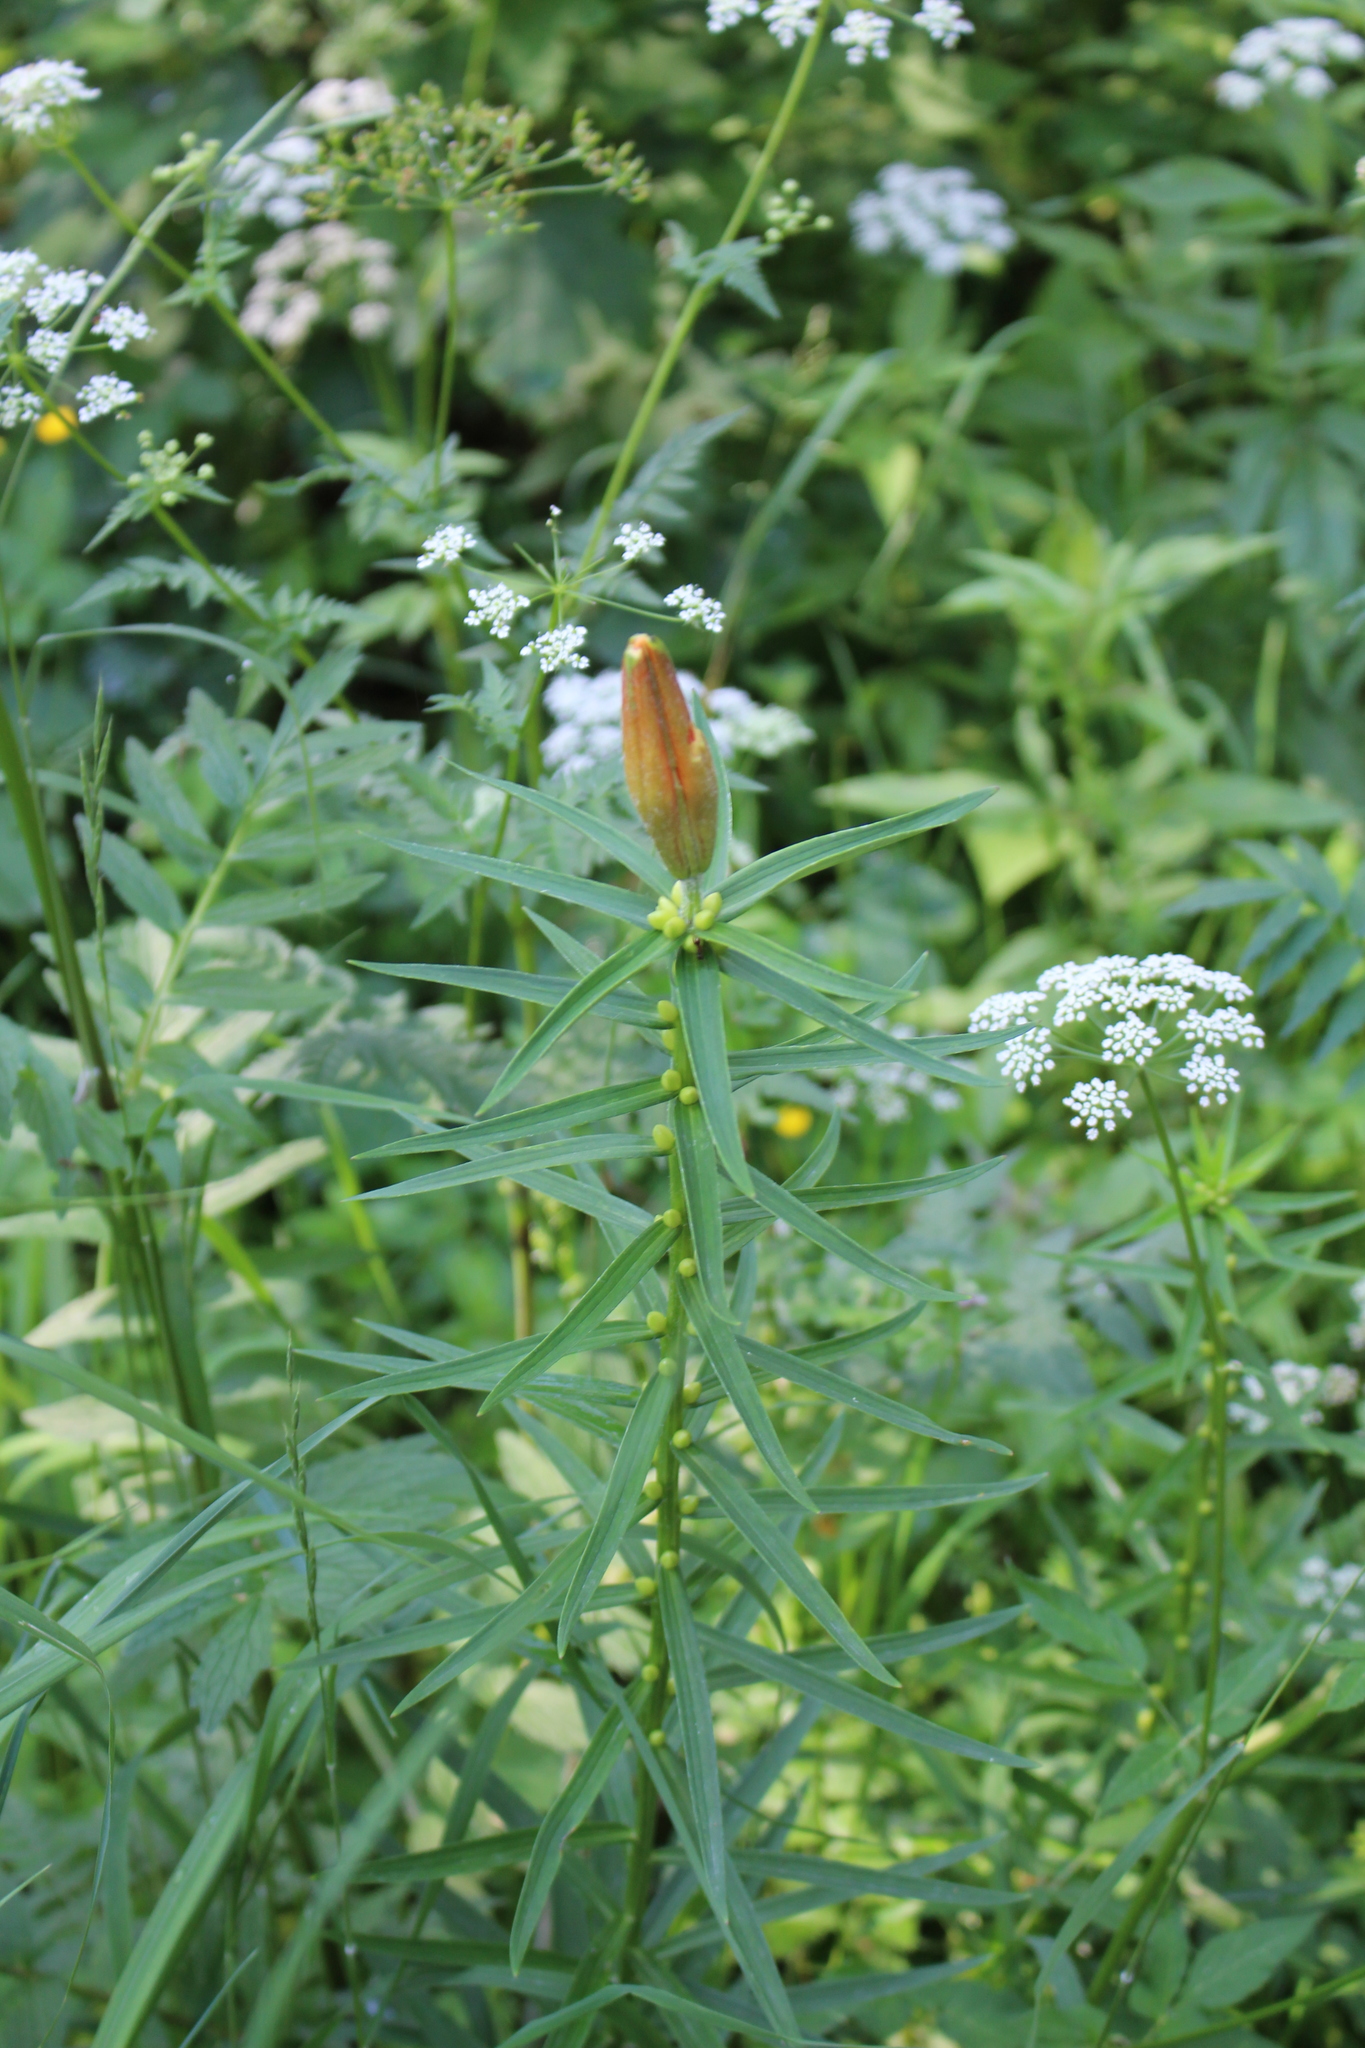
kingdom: Plantae
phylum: Tracheophyta
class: Liliopsida
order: Liliales
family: Liliaceae
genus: Lilium
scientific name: Lilium bulbiferum
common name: Orange lily
